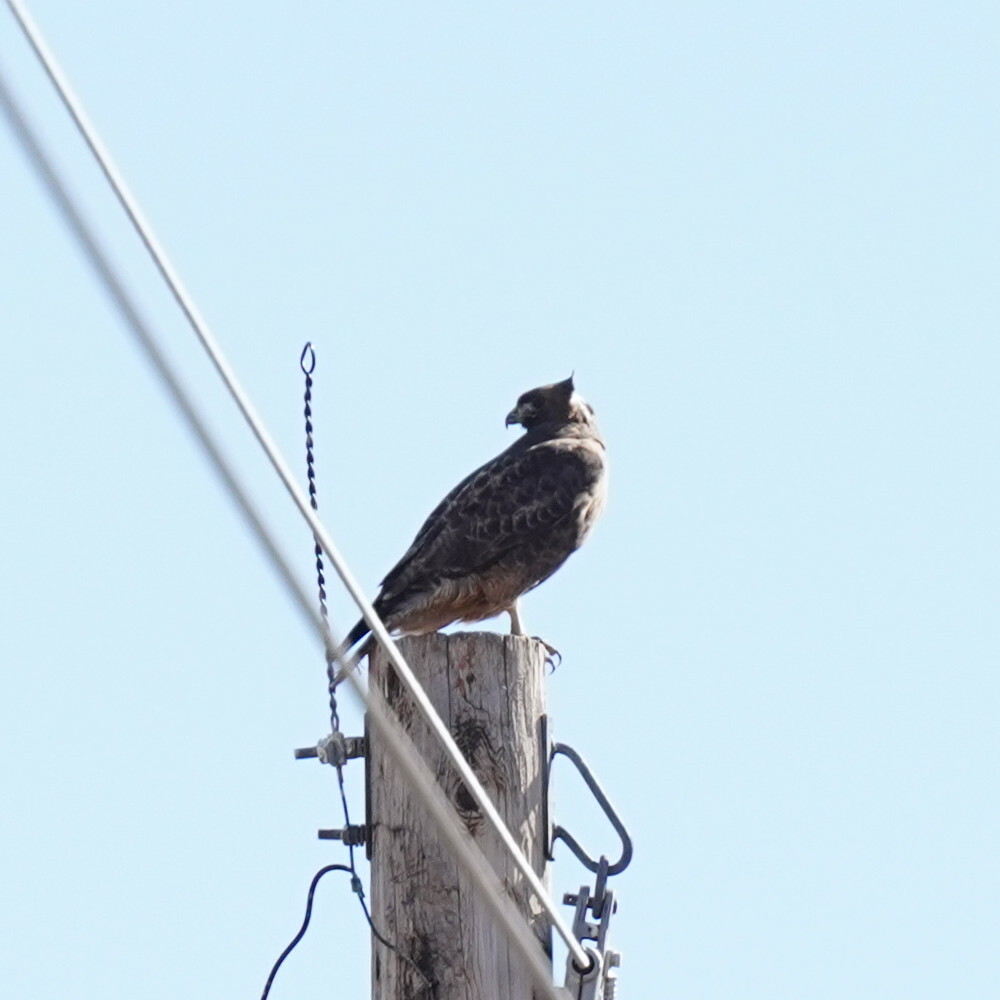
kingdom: Animalia
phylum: Chordata
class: Aves
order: Accipitriformes
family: Accipitridae
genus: Buteo
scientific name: Buteo jamaicensis
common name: Red-tailed hawk
